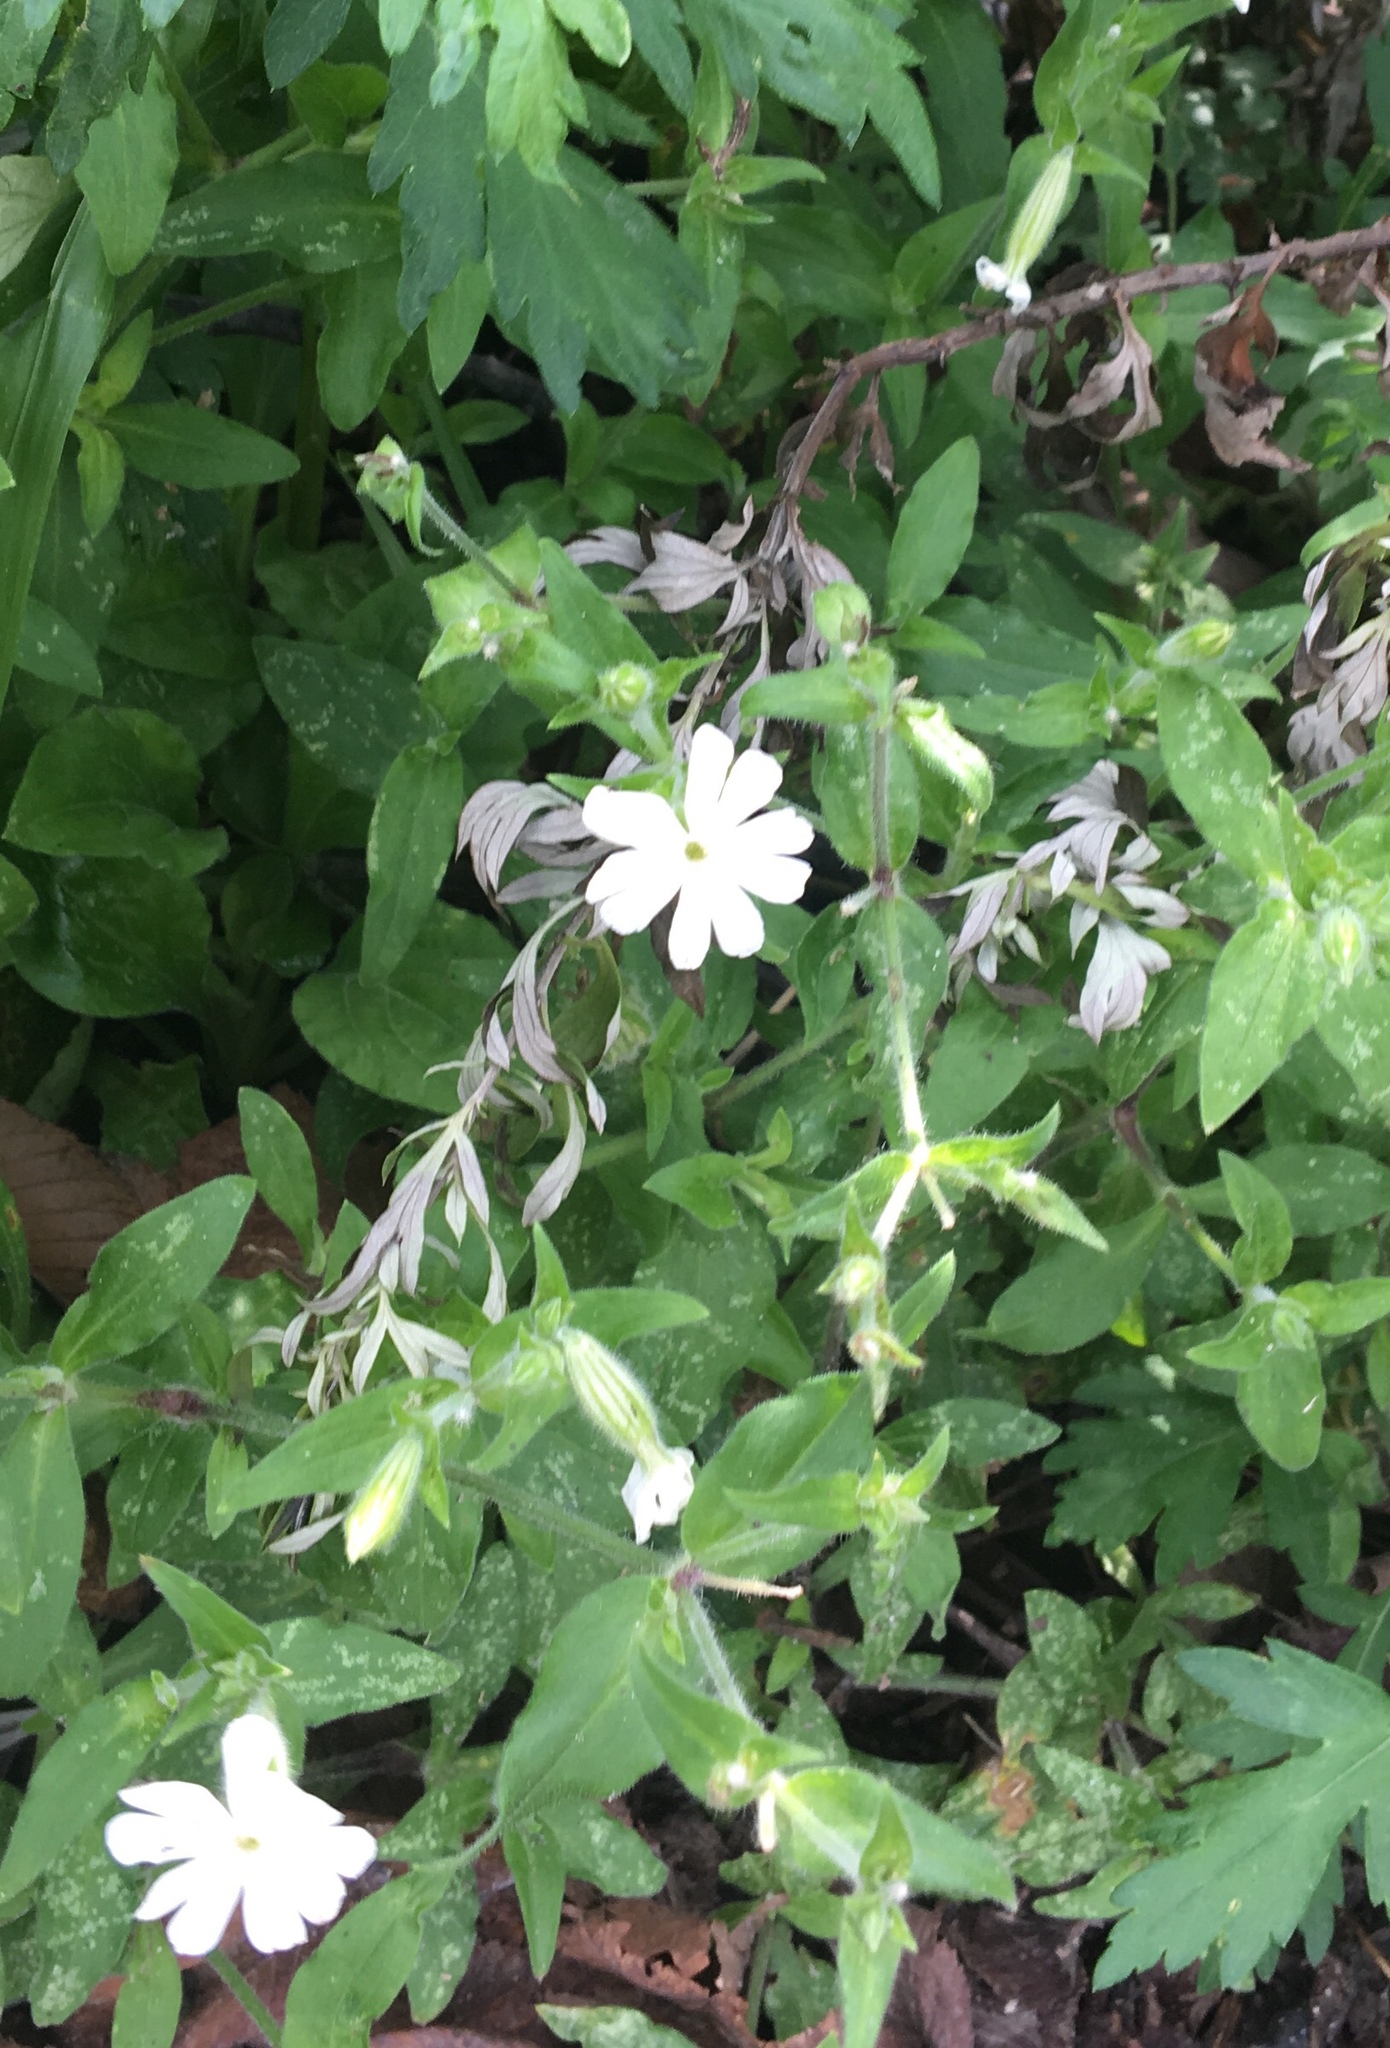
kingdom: Plantae
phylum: Tracheophyta
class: Magnoliopsida
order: Caryophyllales
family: Caryophyllaceae
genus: Silene
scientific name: Silene latifolia
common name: White campion
